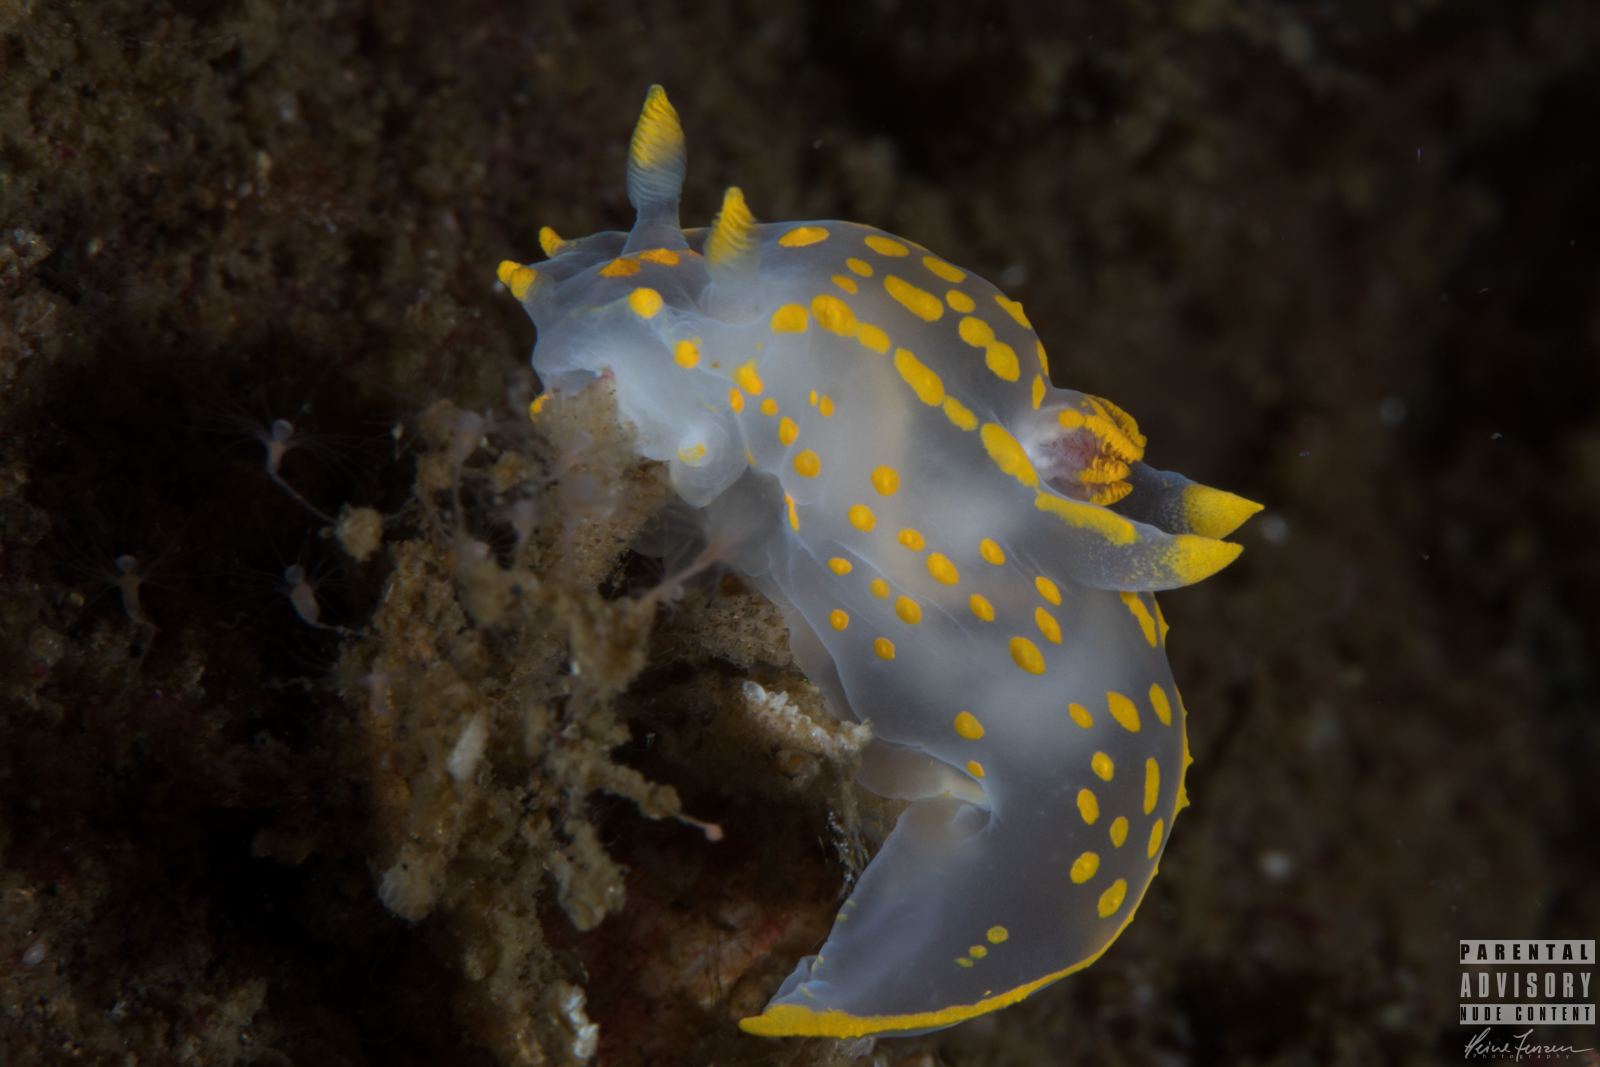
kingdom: Animalia
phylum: Mollusca
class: Gastropoda
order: Nudibranchia
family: Polyceridae
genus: Polycera
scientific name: Polycera quadrilineata
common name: Four-striped polycera
